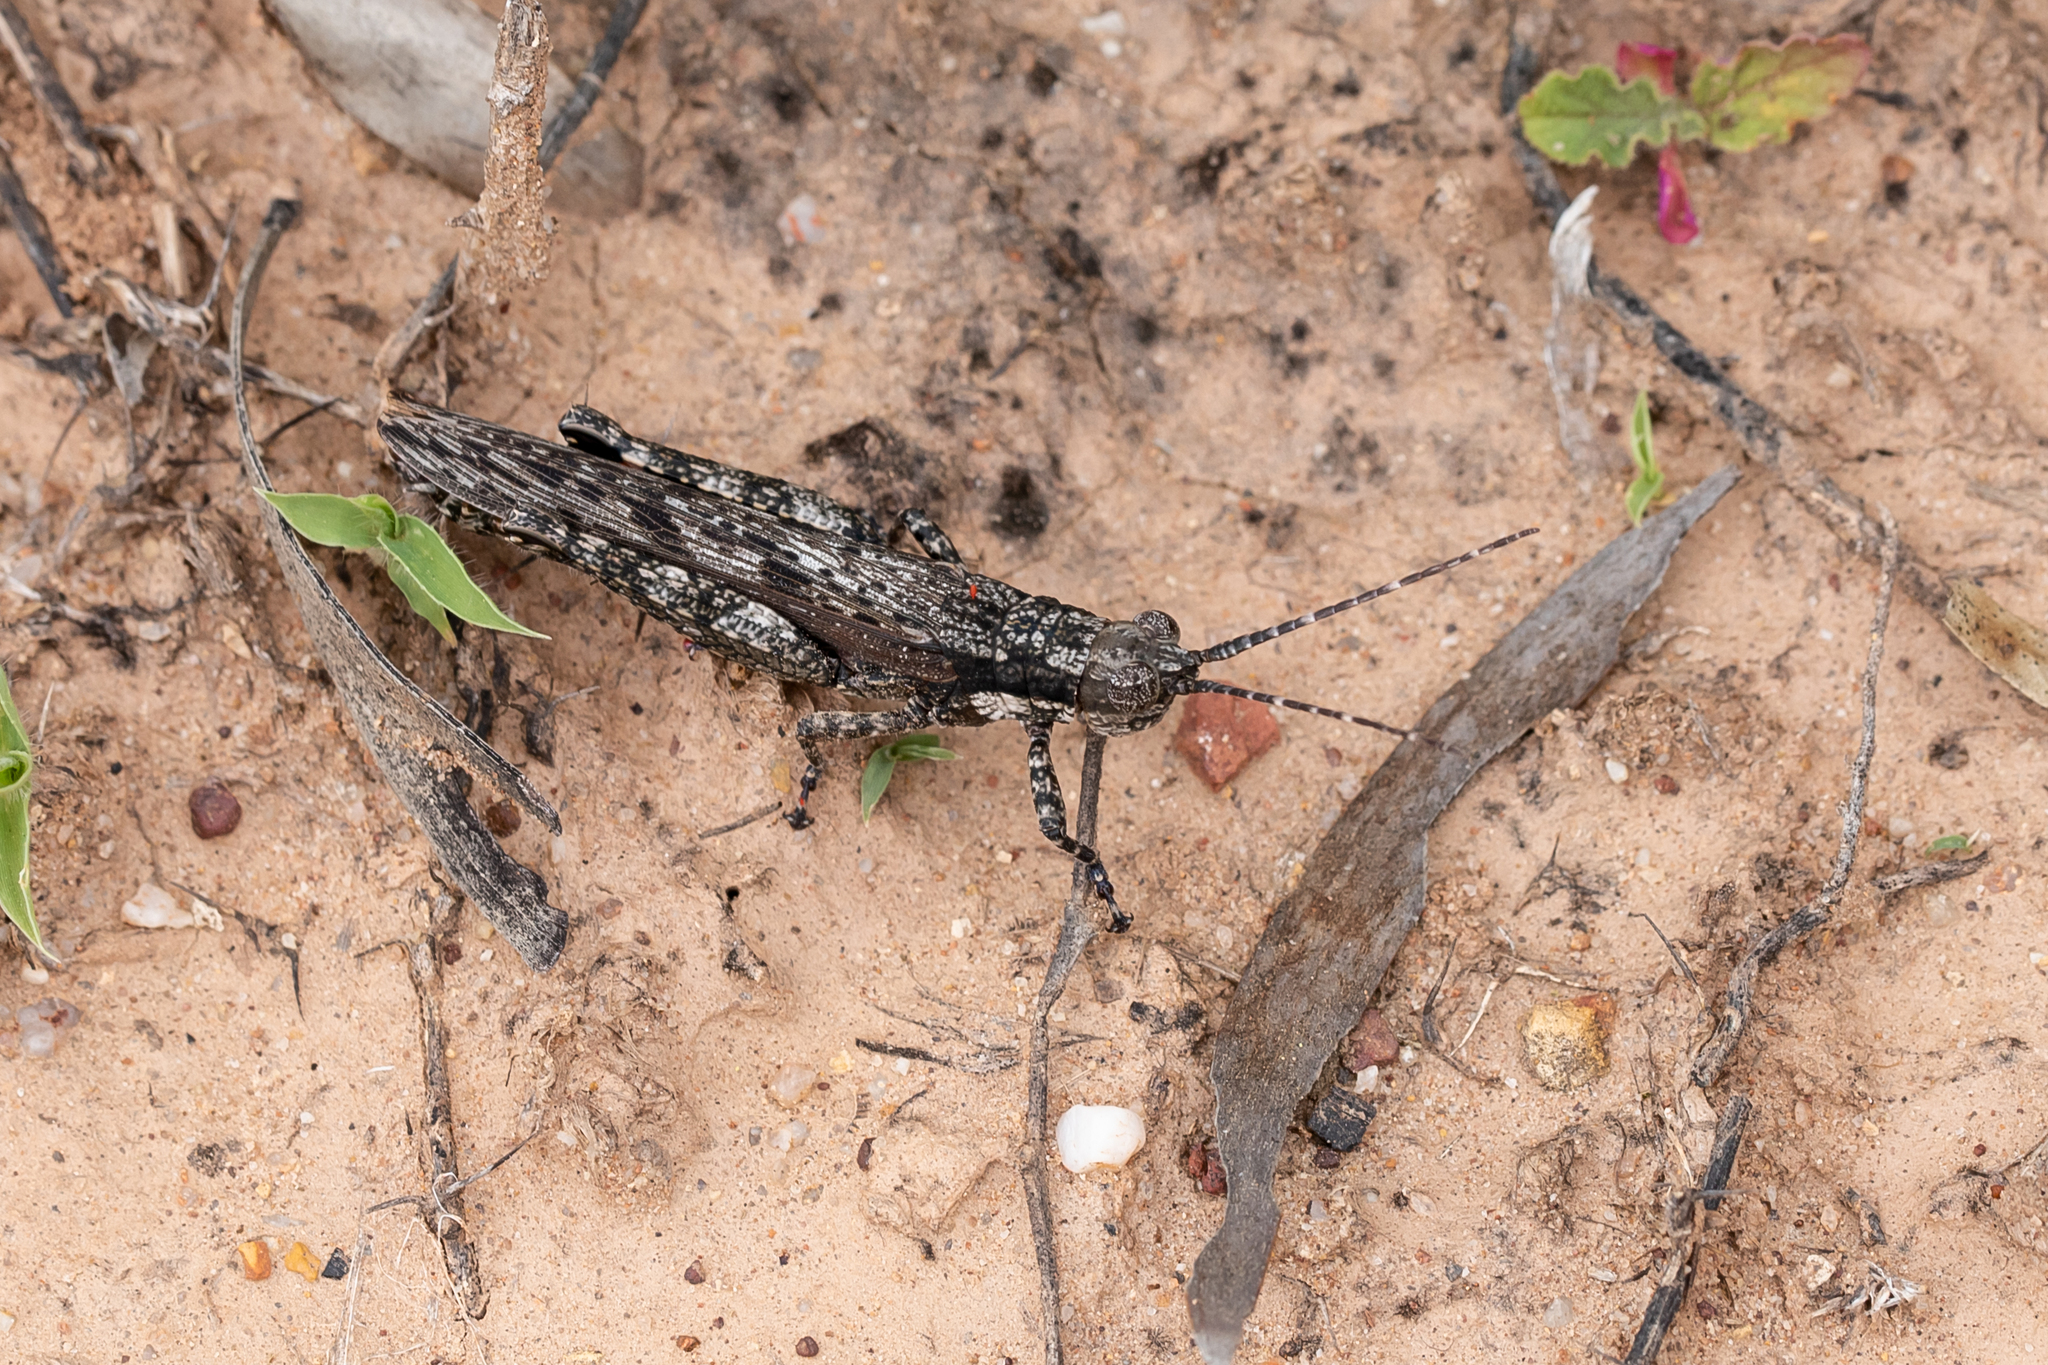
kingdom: Animalia
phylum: Arthropoda
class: Insecta
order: Orthoptera
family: Acrididae
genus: Coryphistes
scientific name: Coryphistes ruricola
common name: Bark-mimicking grasshopper
